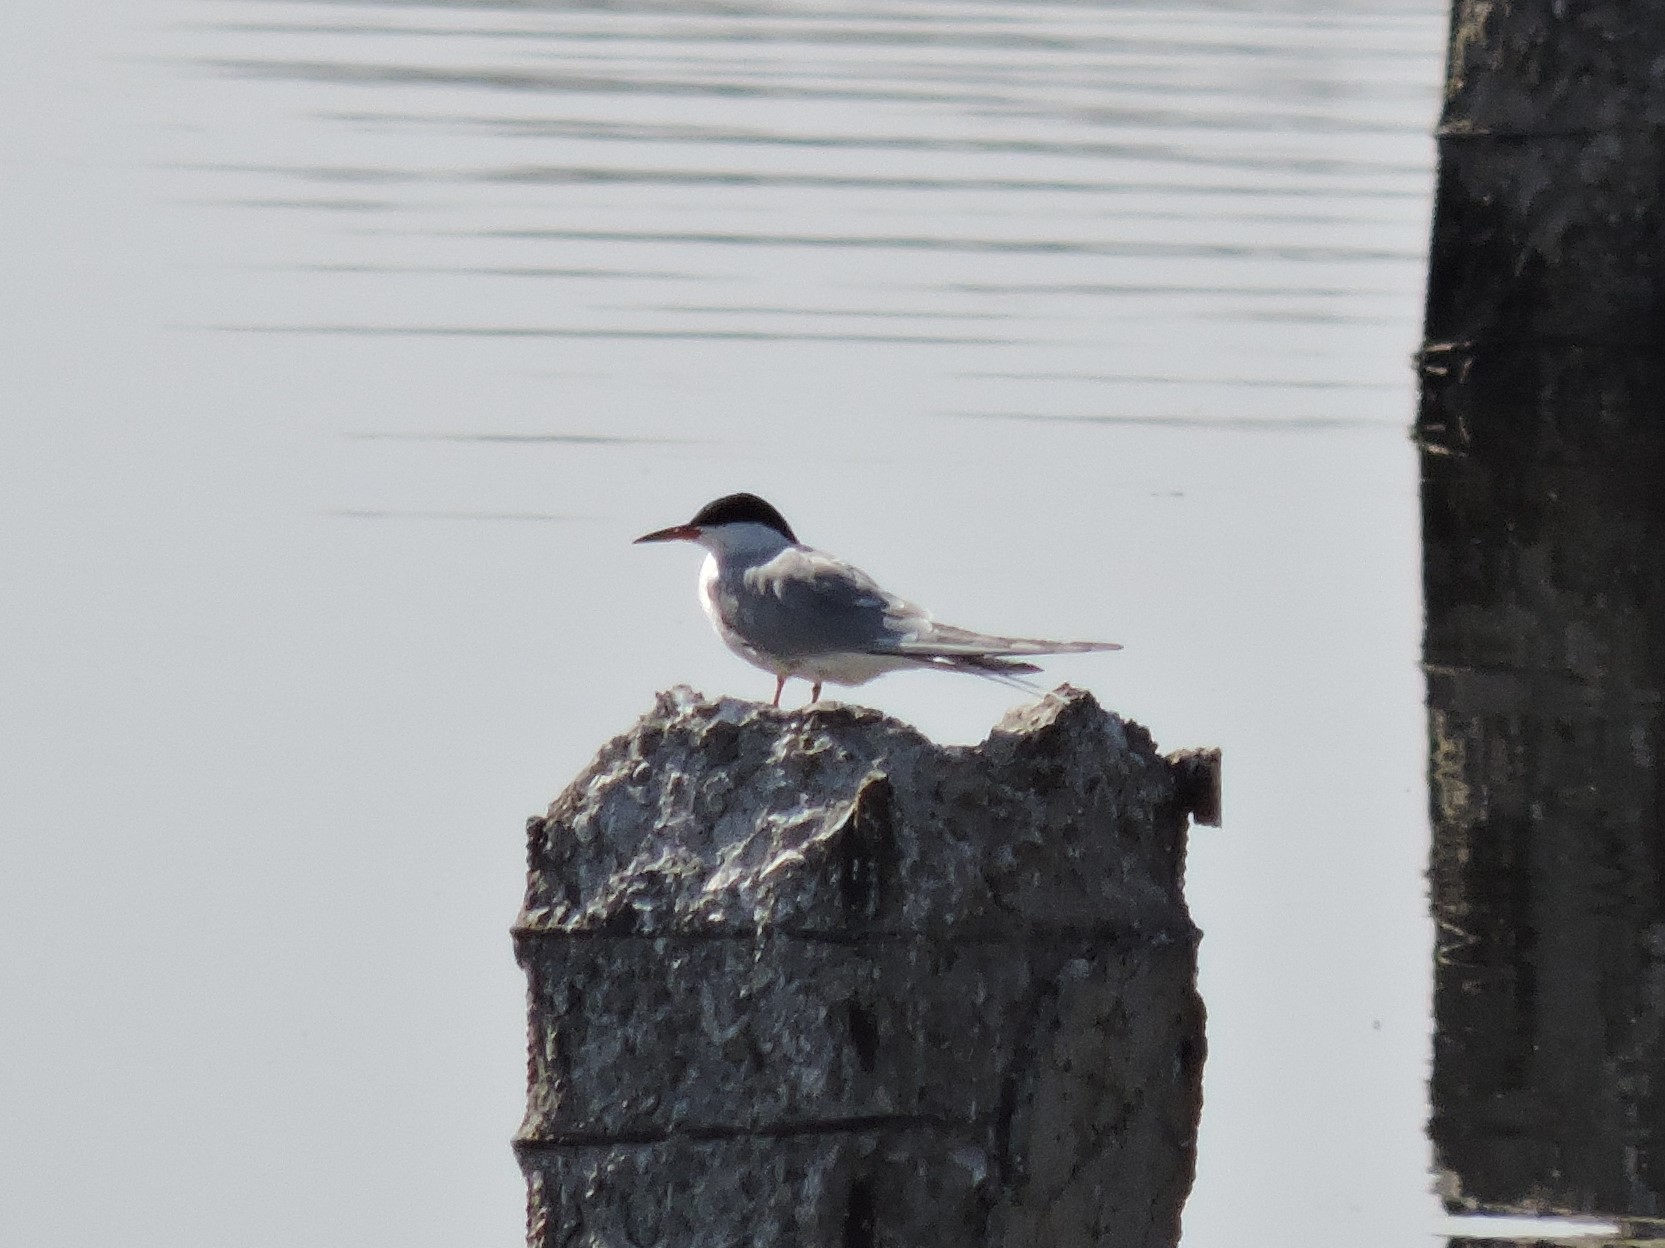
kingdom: Animalia
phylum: Chordata
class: Aves
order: Charadriiformes
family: Laridae
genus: Sterna
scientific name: Sterna hirundo
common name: Common tern
